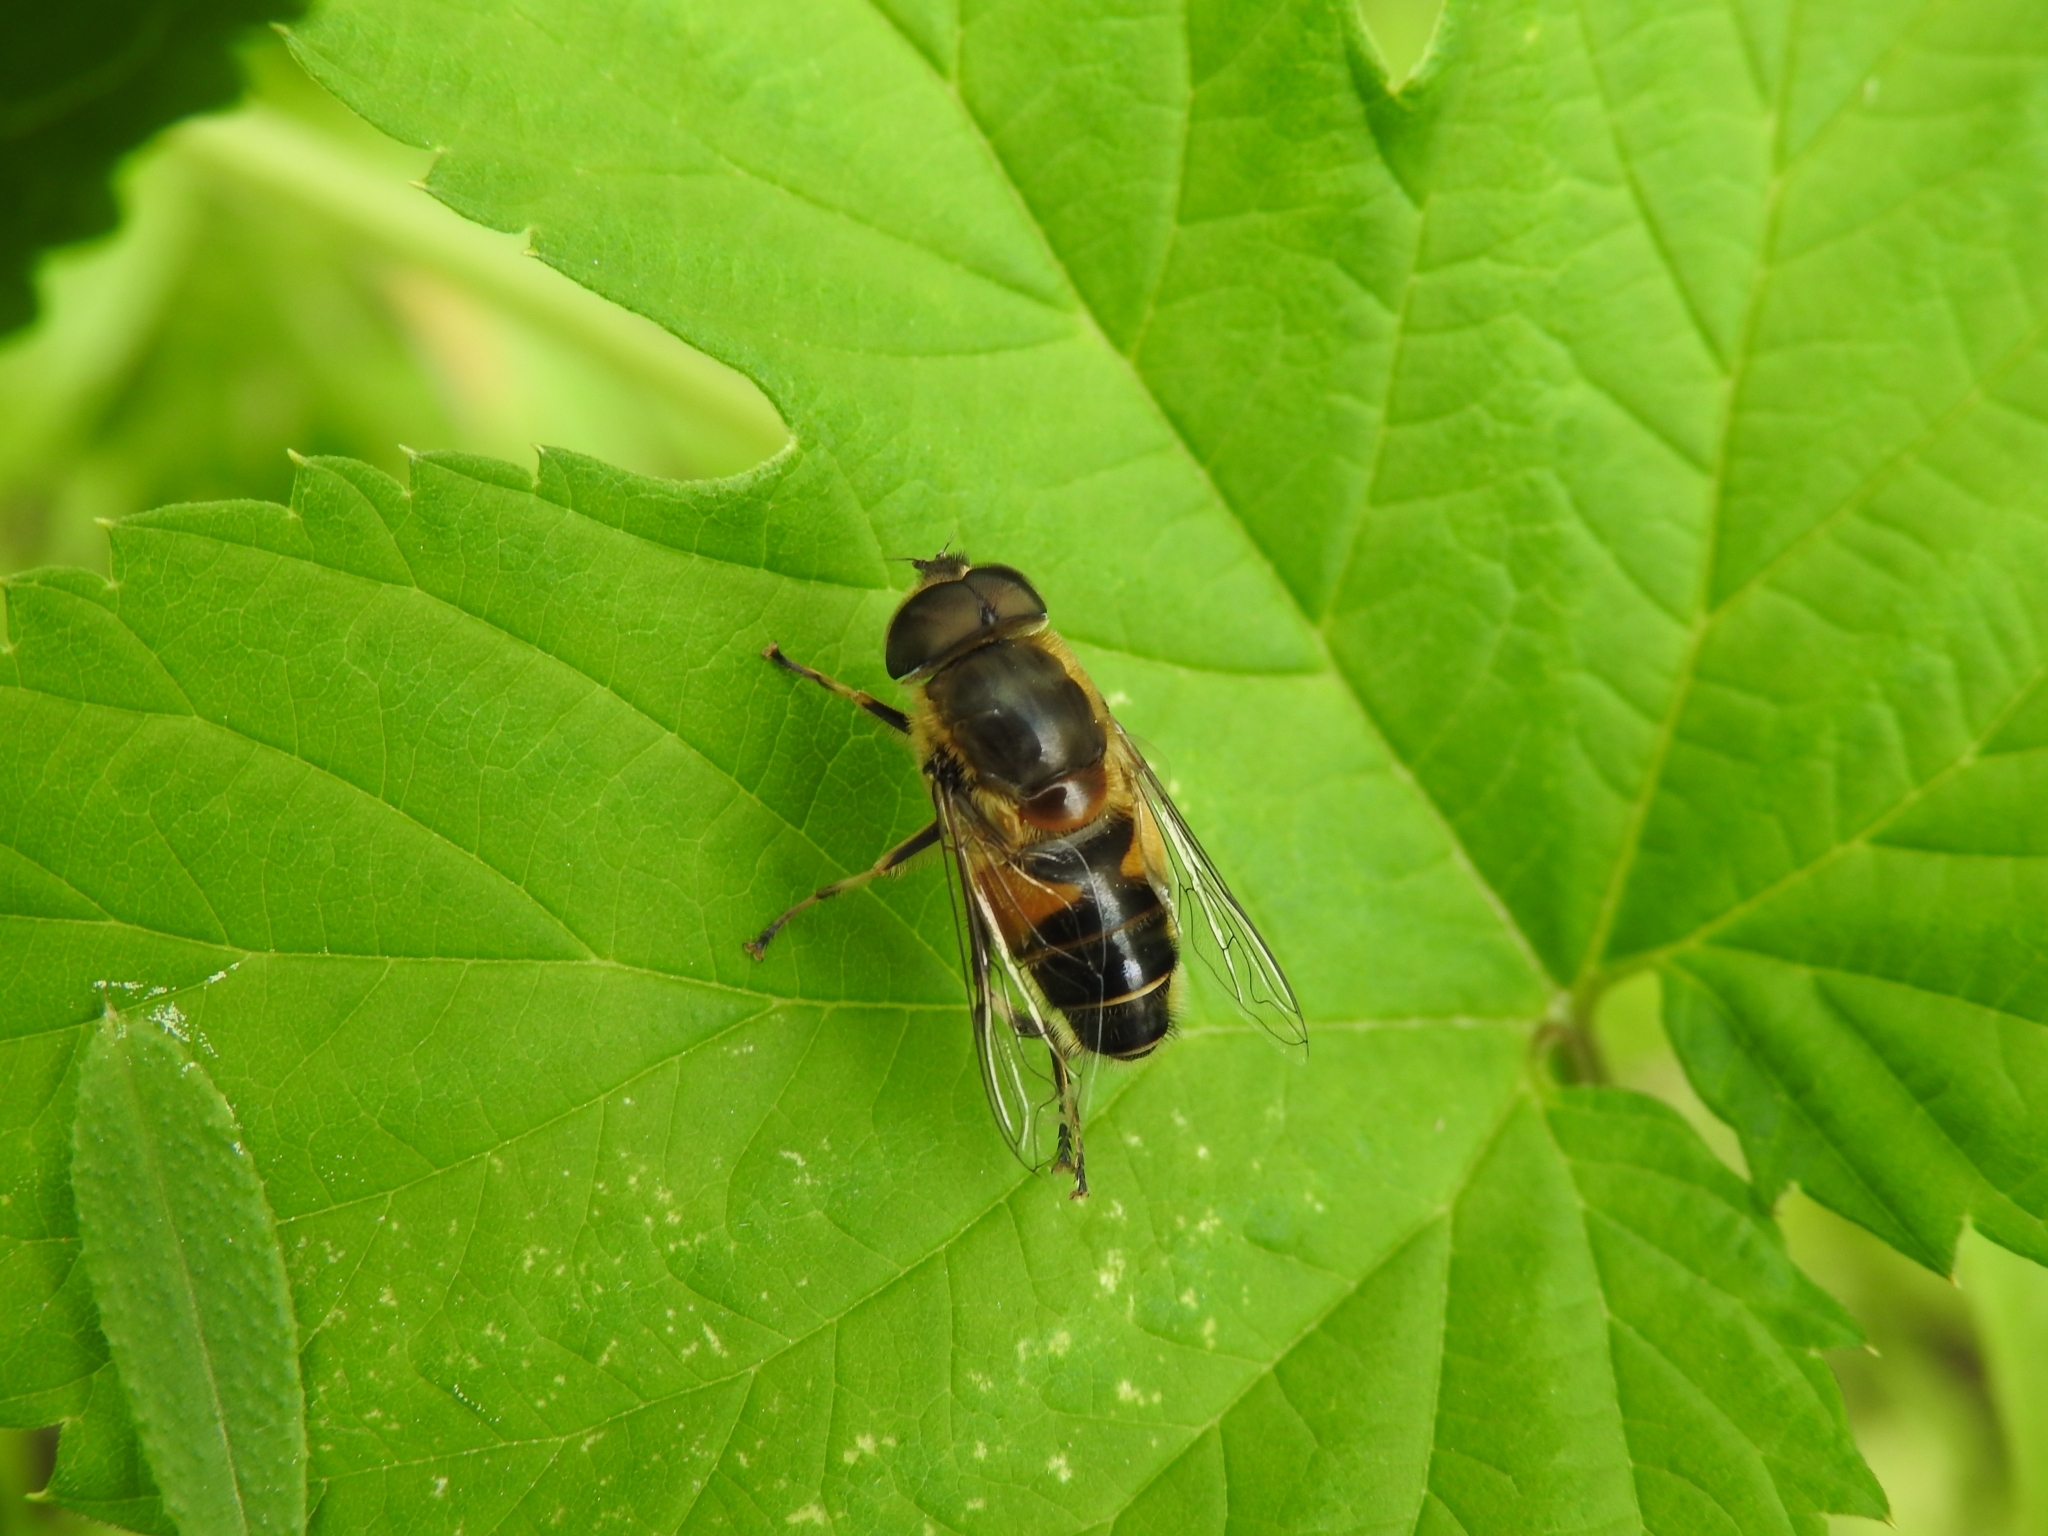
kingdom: Animalia
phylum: Arthropoda
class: Insecta
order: Diptera
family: Syrphidae
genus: Eristalis
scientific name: Eristalis pertinax
